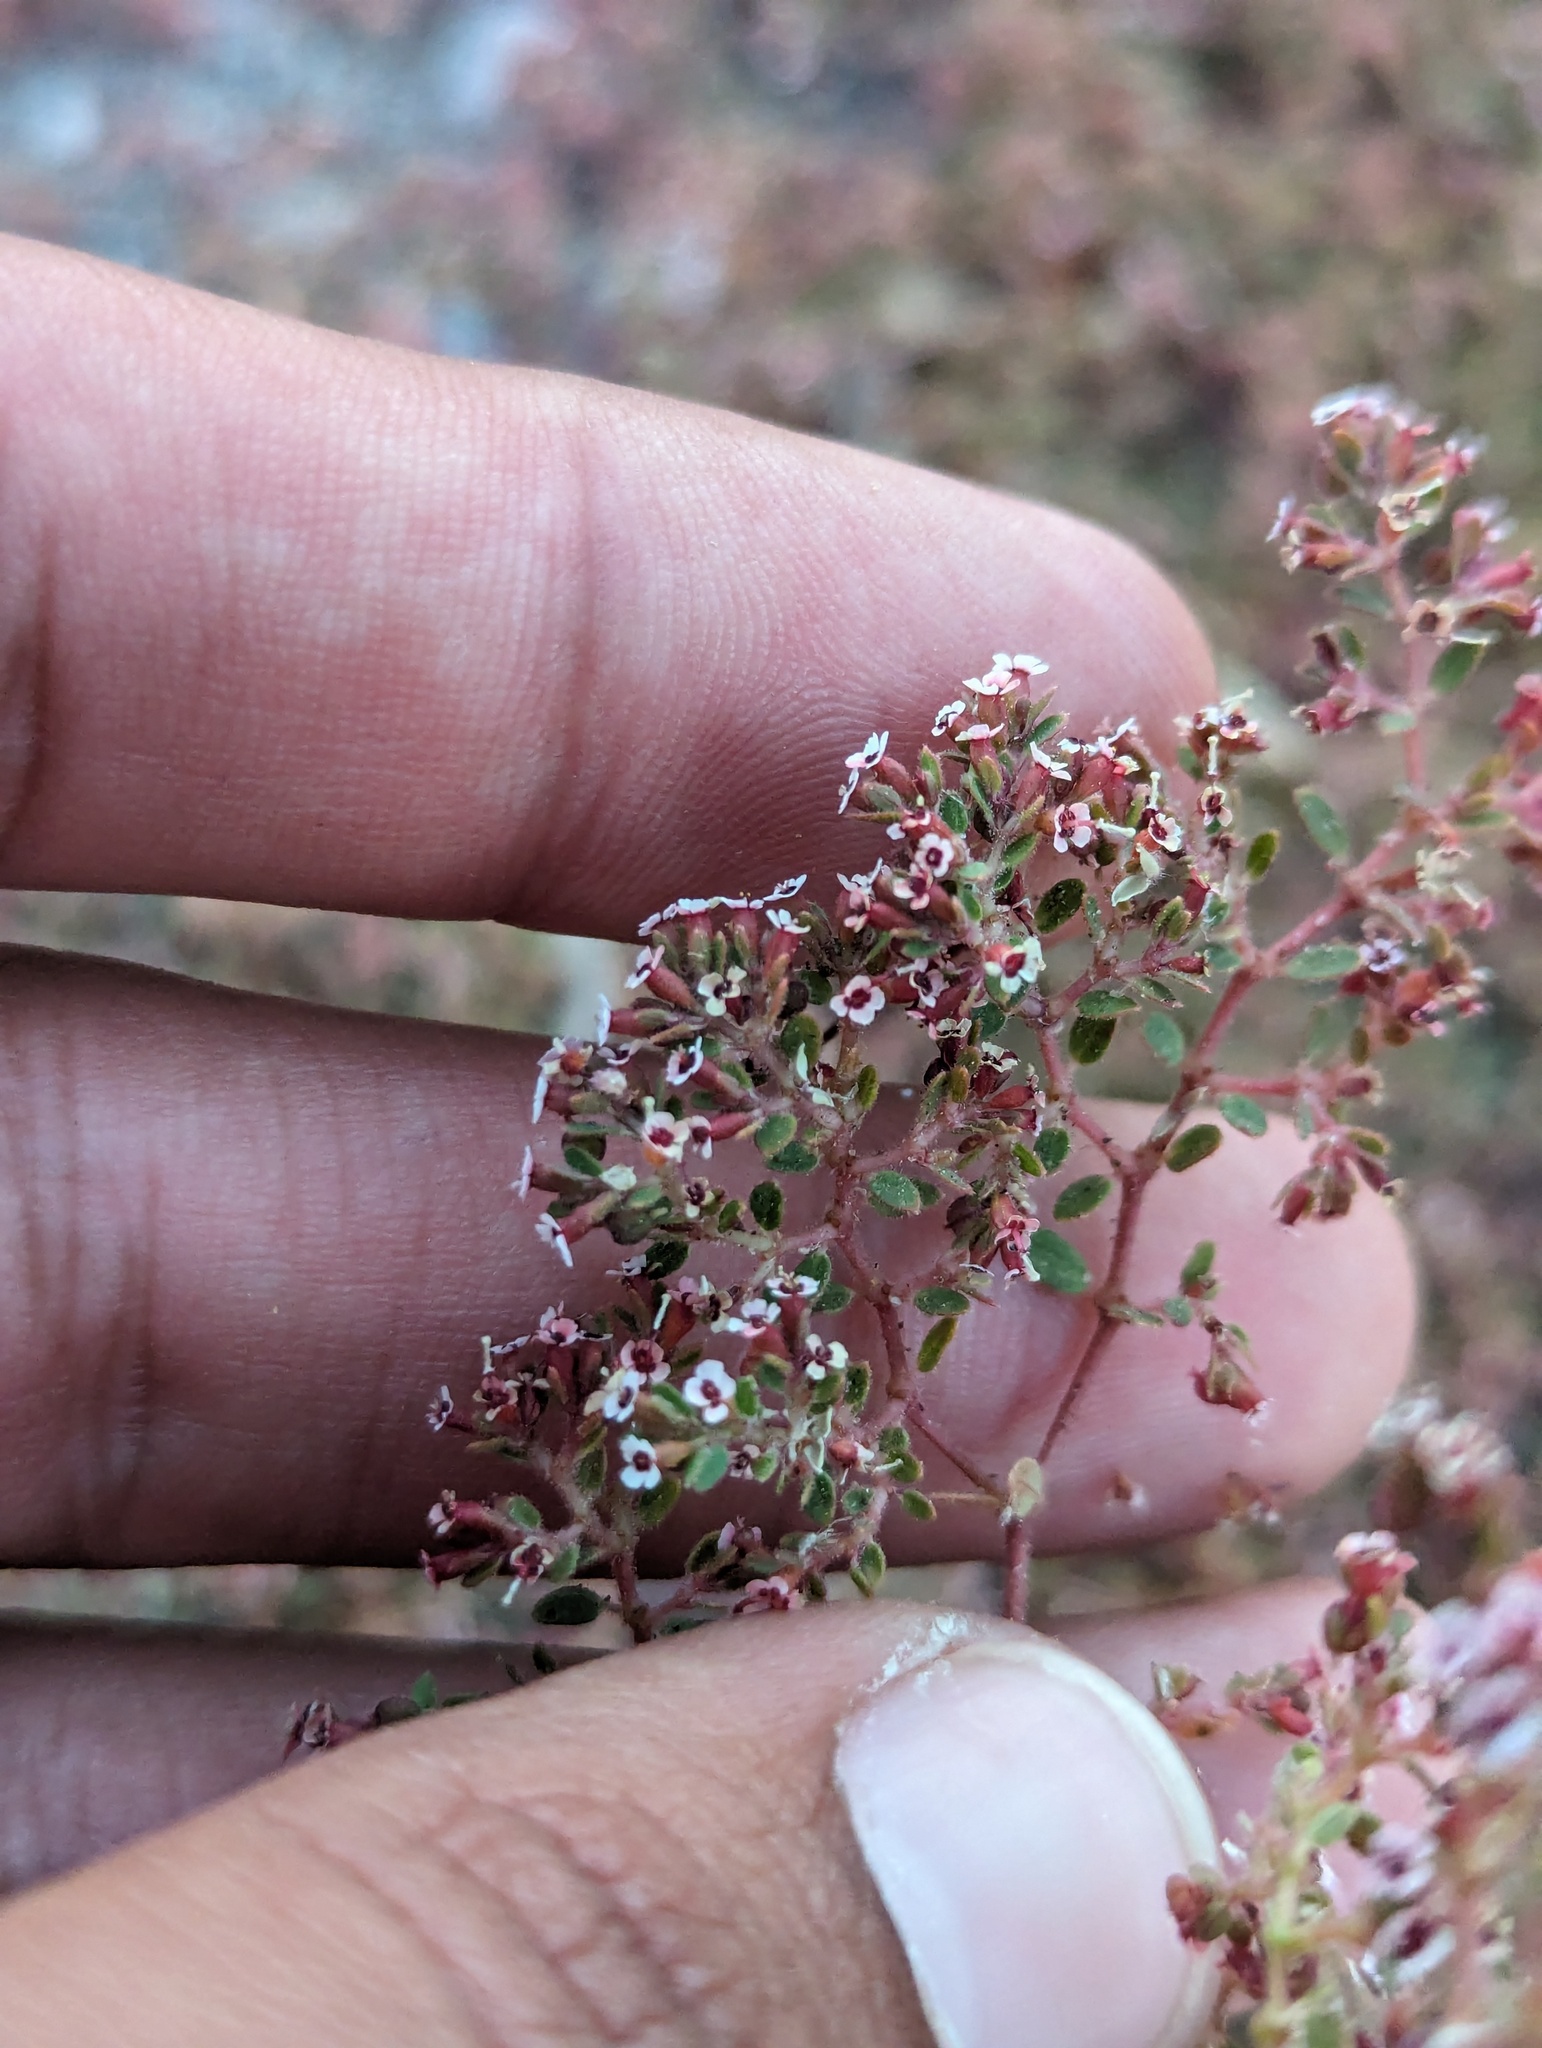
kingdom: Plantae
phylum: Tracheophyta
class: Magnoliopsida
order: Malpighiales
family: Euphorbiaceae
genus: Euphorbia
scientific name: Euphorbia arizonica
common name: Arizona spurge
